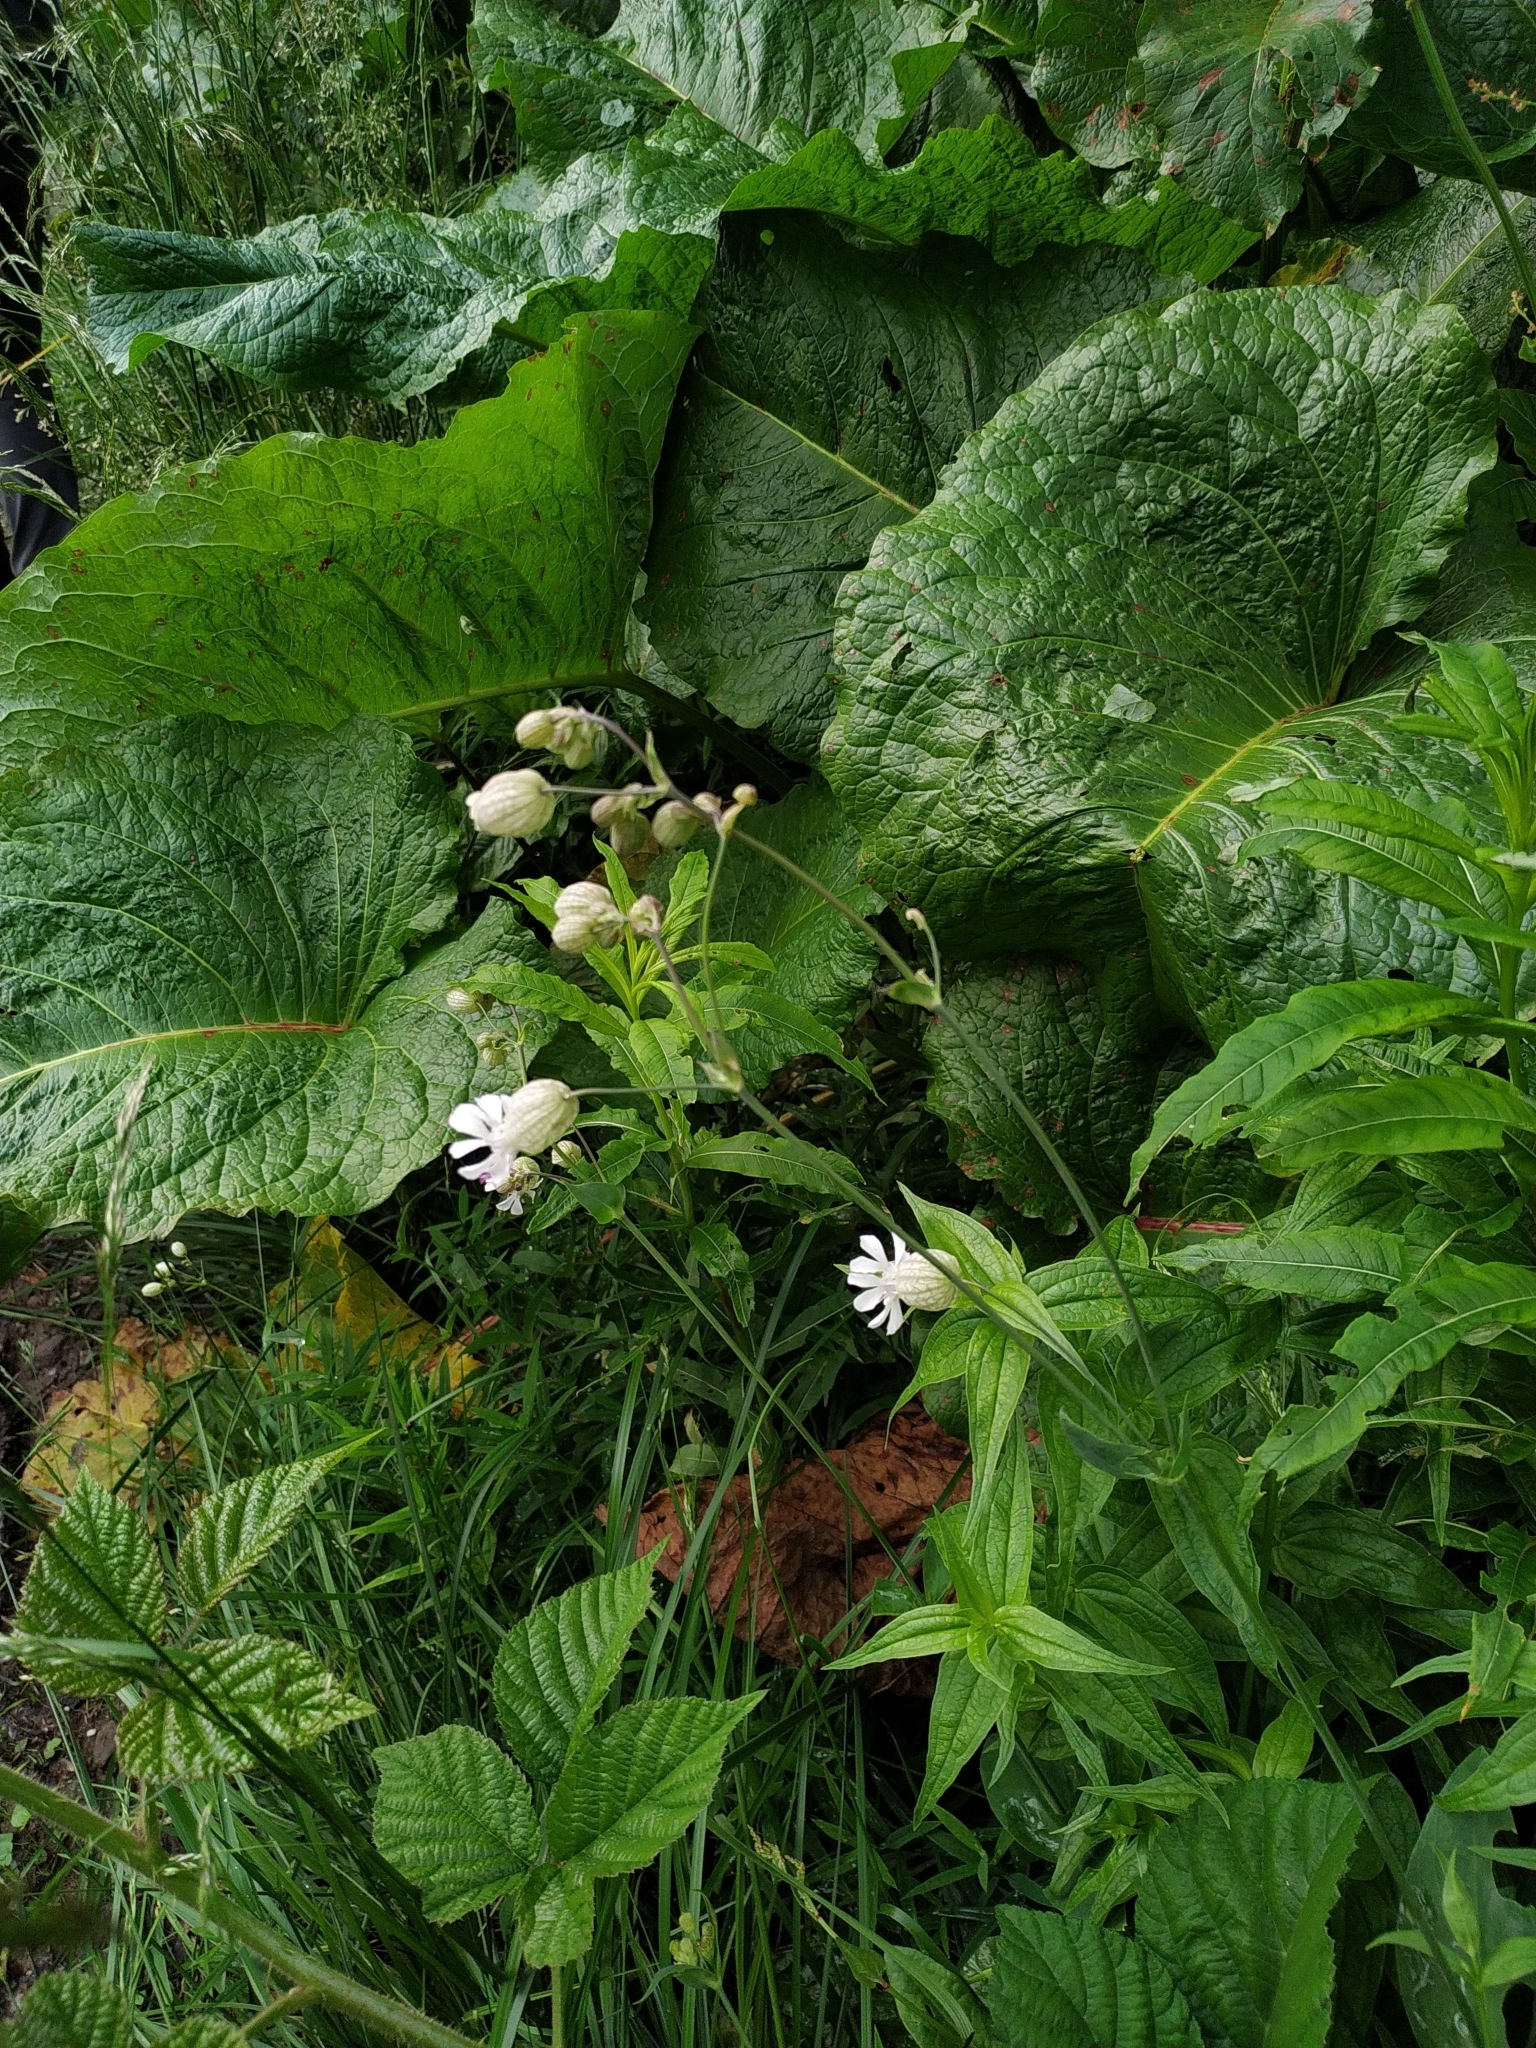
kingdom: Plantae
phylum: Tracheophyta
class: Magnoliopsida
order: Caryophyllales
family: Caryophyllaceae
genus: Silene
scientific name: Silene vulgaris
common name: Bladder campion
